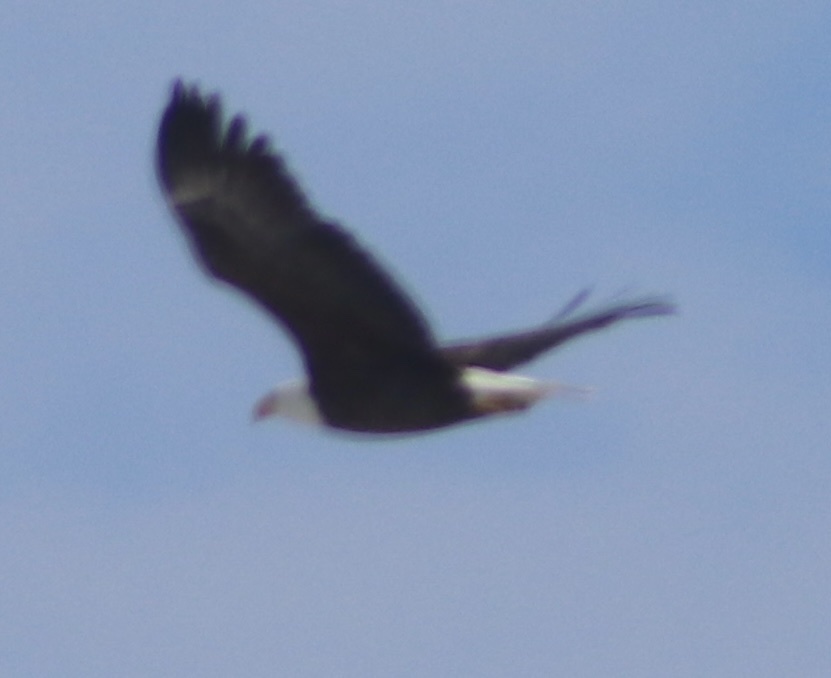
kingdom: Animalia
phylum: Chordata
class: Aves
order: Accipitriformes
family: Accipitridae
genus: Haliaeetus
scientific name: Haliaeetus leucocephalus
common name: Bald eagle
